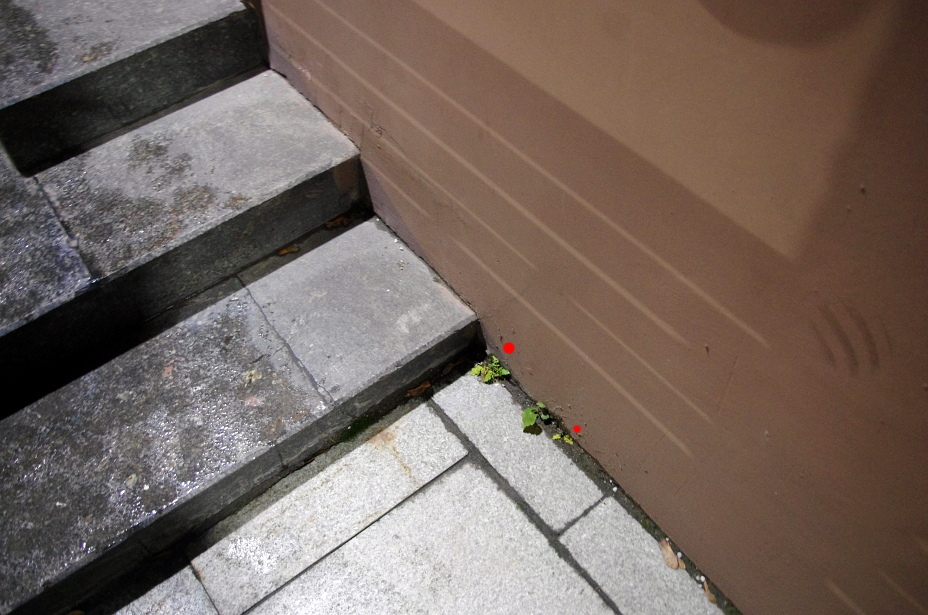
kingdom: Plantae
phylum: Tracheophyta
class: Magnoliopsida
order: Brassicales
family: Brassicaceae
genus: Rorippa
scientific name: Rorippa palustris
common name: Marsh yellow-cress
